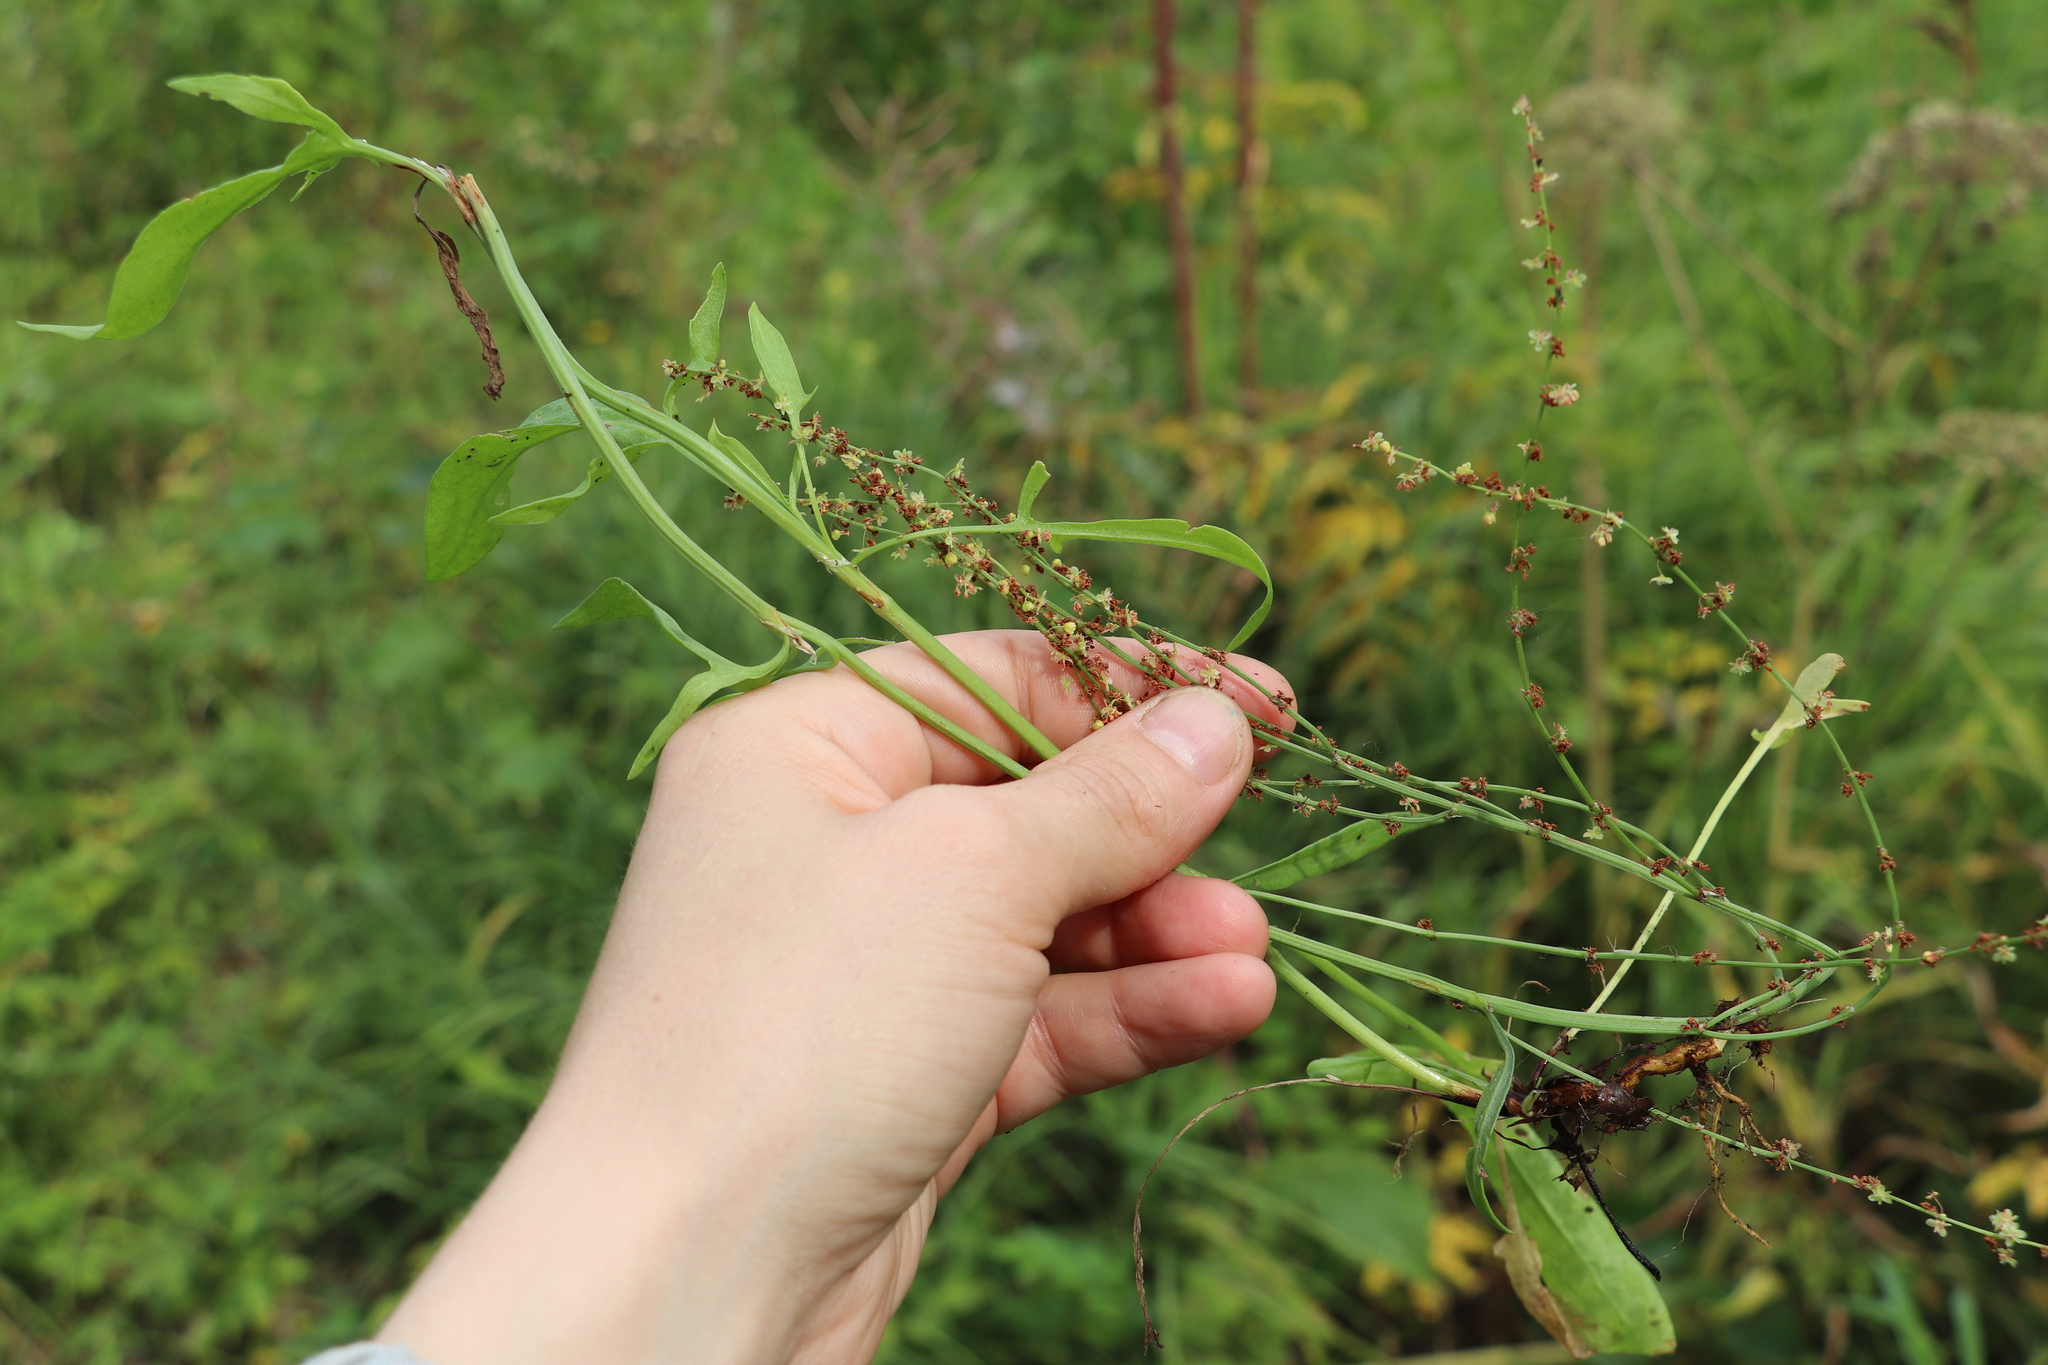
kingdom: Plantae
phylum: Tracheophyta
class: Magnoliopsida
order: Caryophyllales
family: Polygonaceae
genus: Rumex
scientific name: Rumex acetosella
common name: Common sheep sorrel
